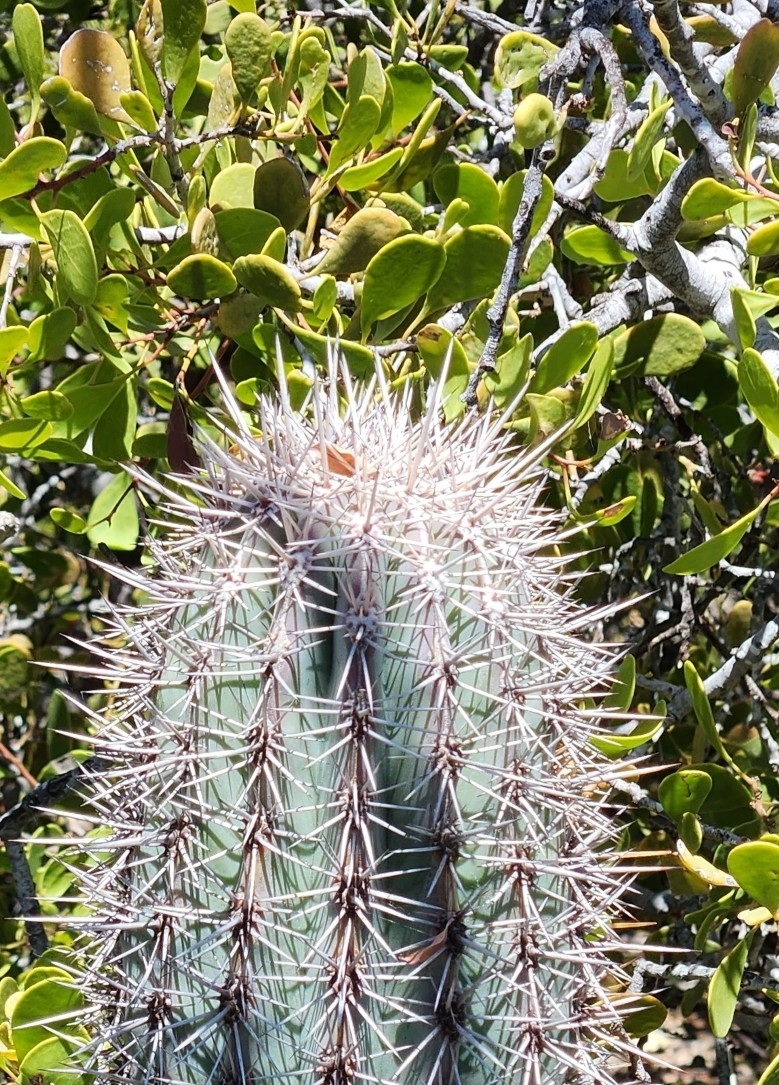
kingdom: Plantae
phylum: Tracheophyta
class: Magnoliopsida
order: Caryophyllales
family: Cactaceae
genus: Pachycereus
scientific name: Pachycereus pringlei
